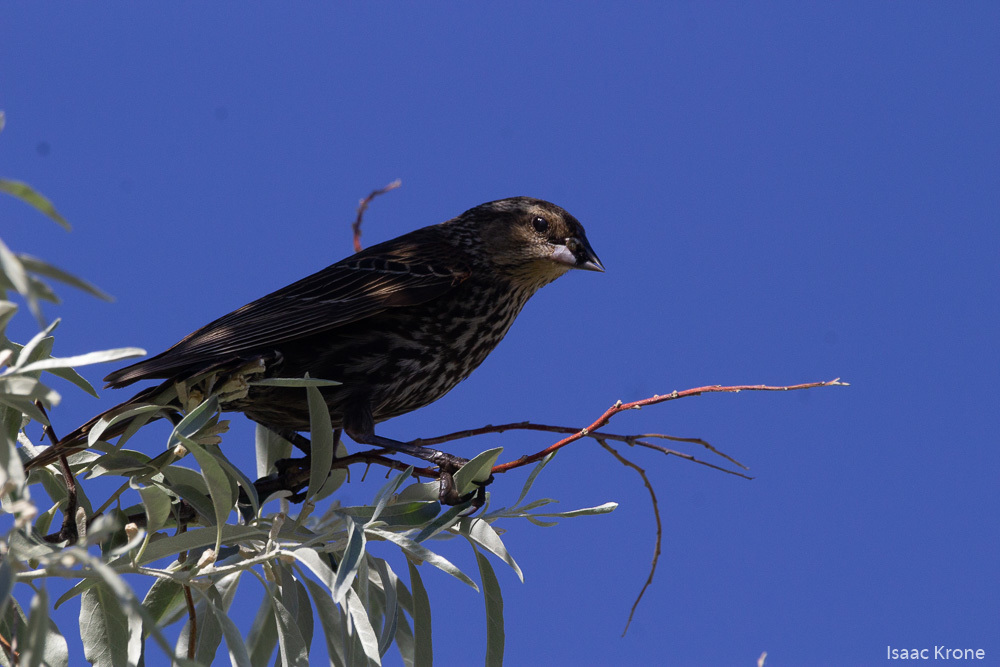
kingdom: Animalia
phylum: Chordata
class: Aves
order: Passeriformes
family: Icteridae
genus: Agelaius
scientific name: Agelaius phoeniceus
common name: Red-winged blackbird
